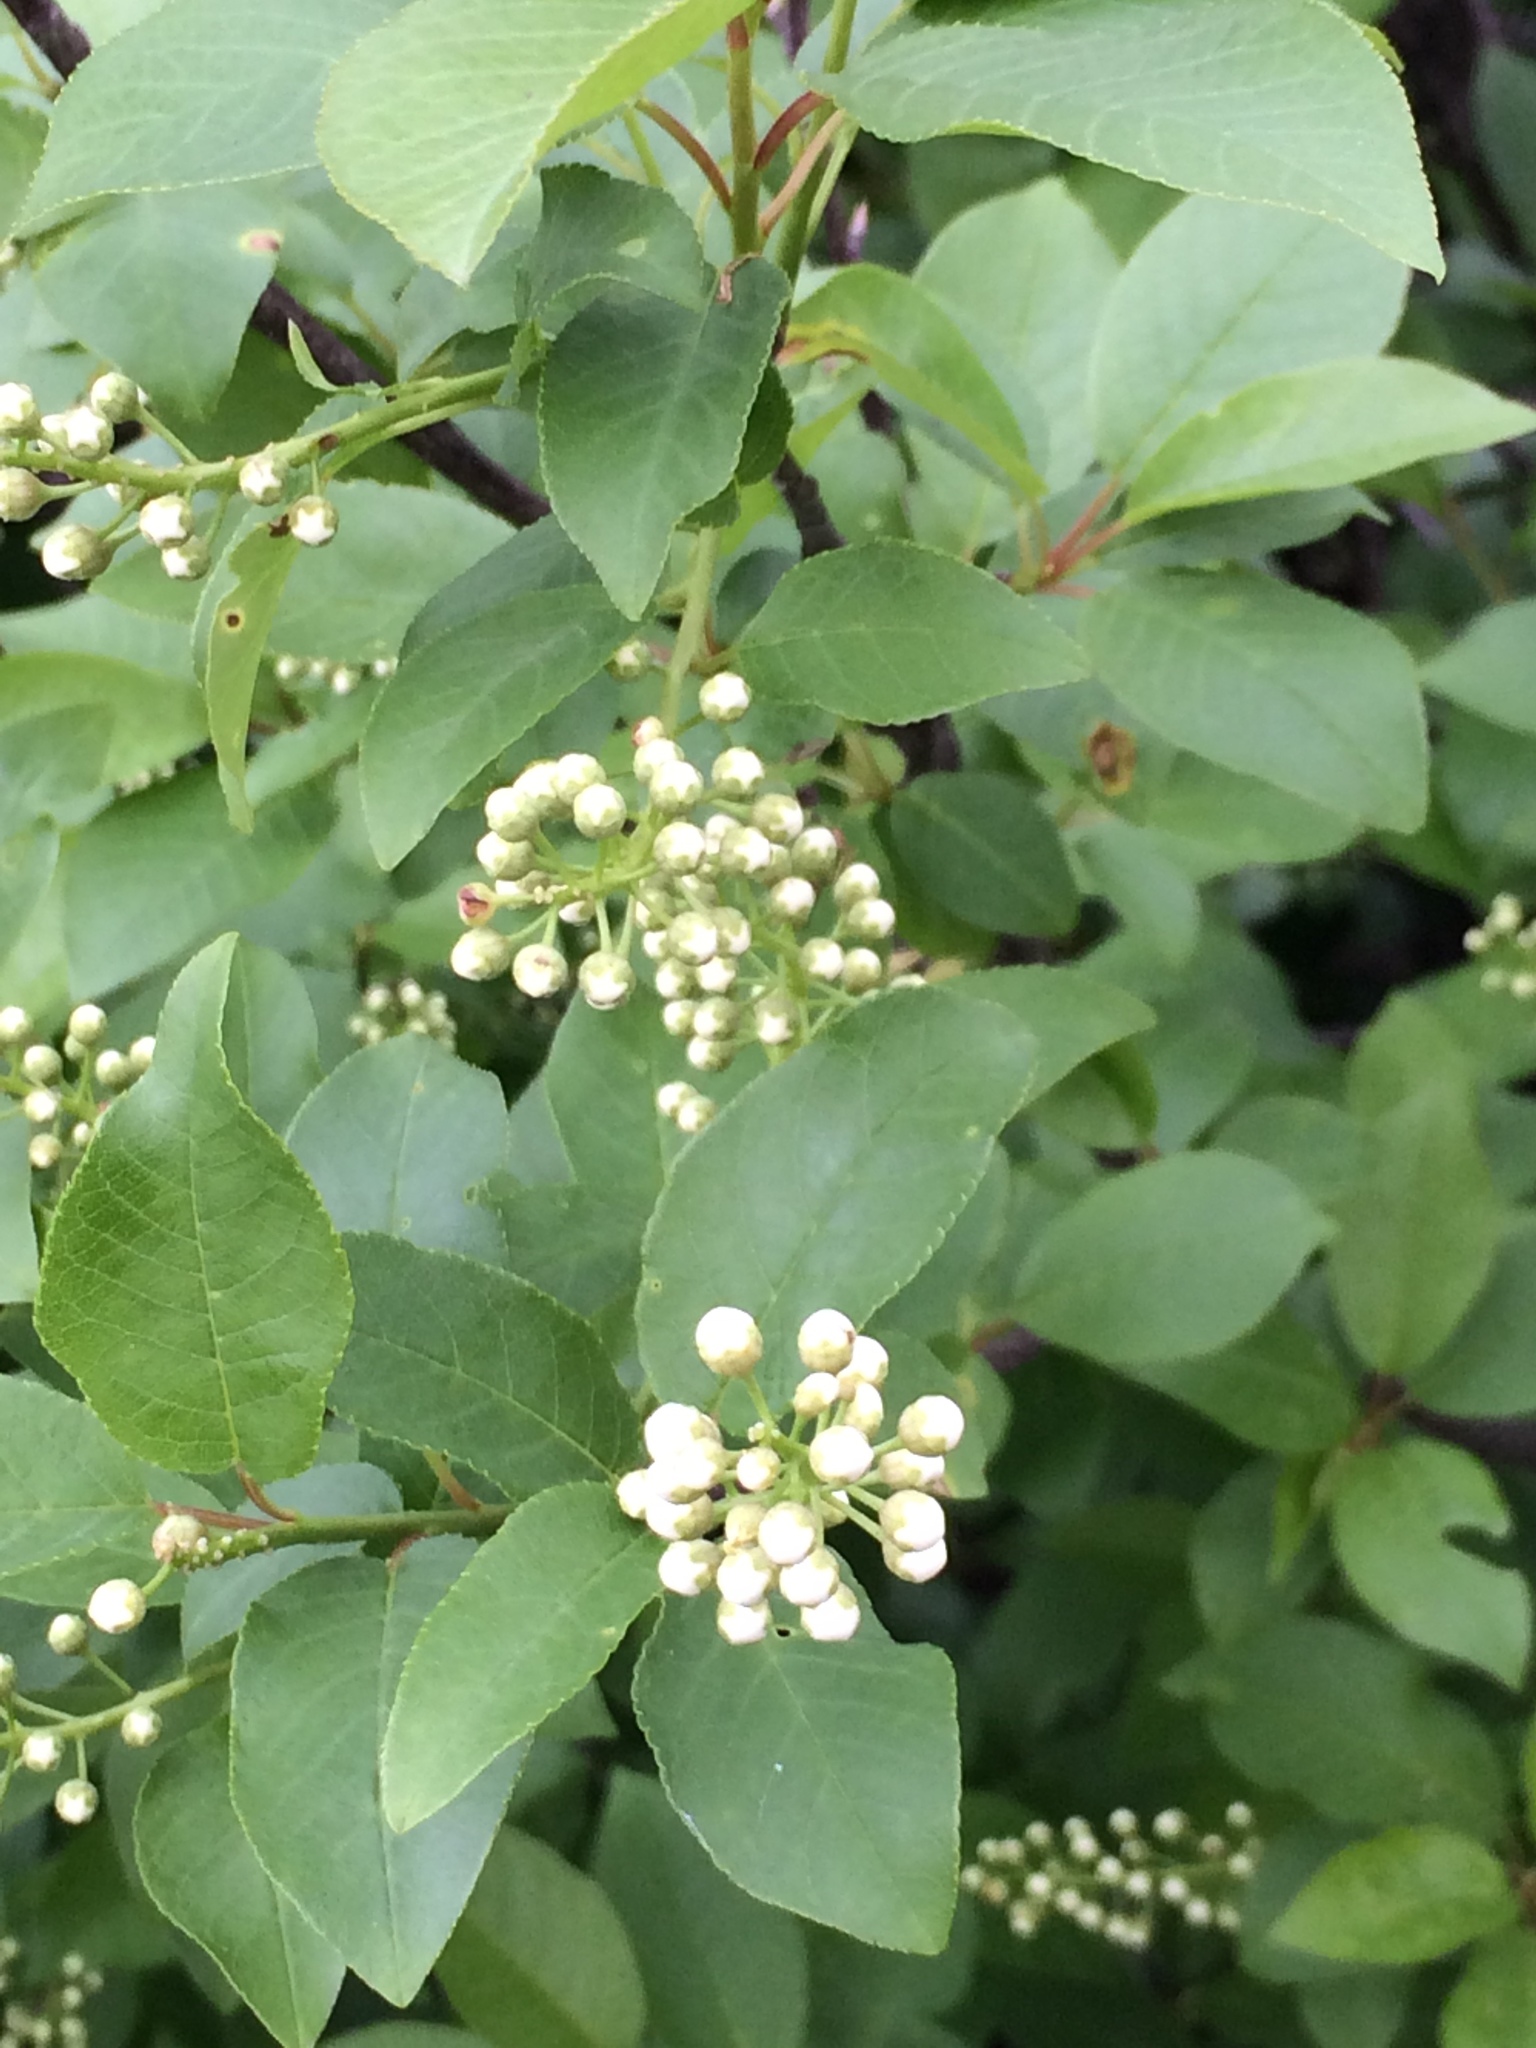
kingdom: Plantae
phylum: Tracheophyta
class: Magnoliopsida
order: Rosales
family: Rosaceae
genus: Prunus
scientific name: Prunus virginiana
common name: Chokecherry
